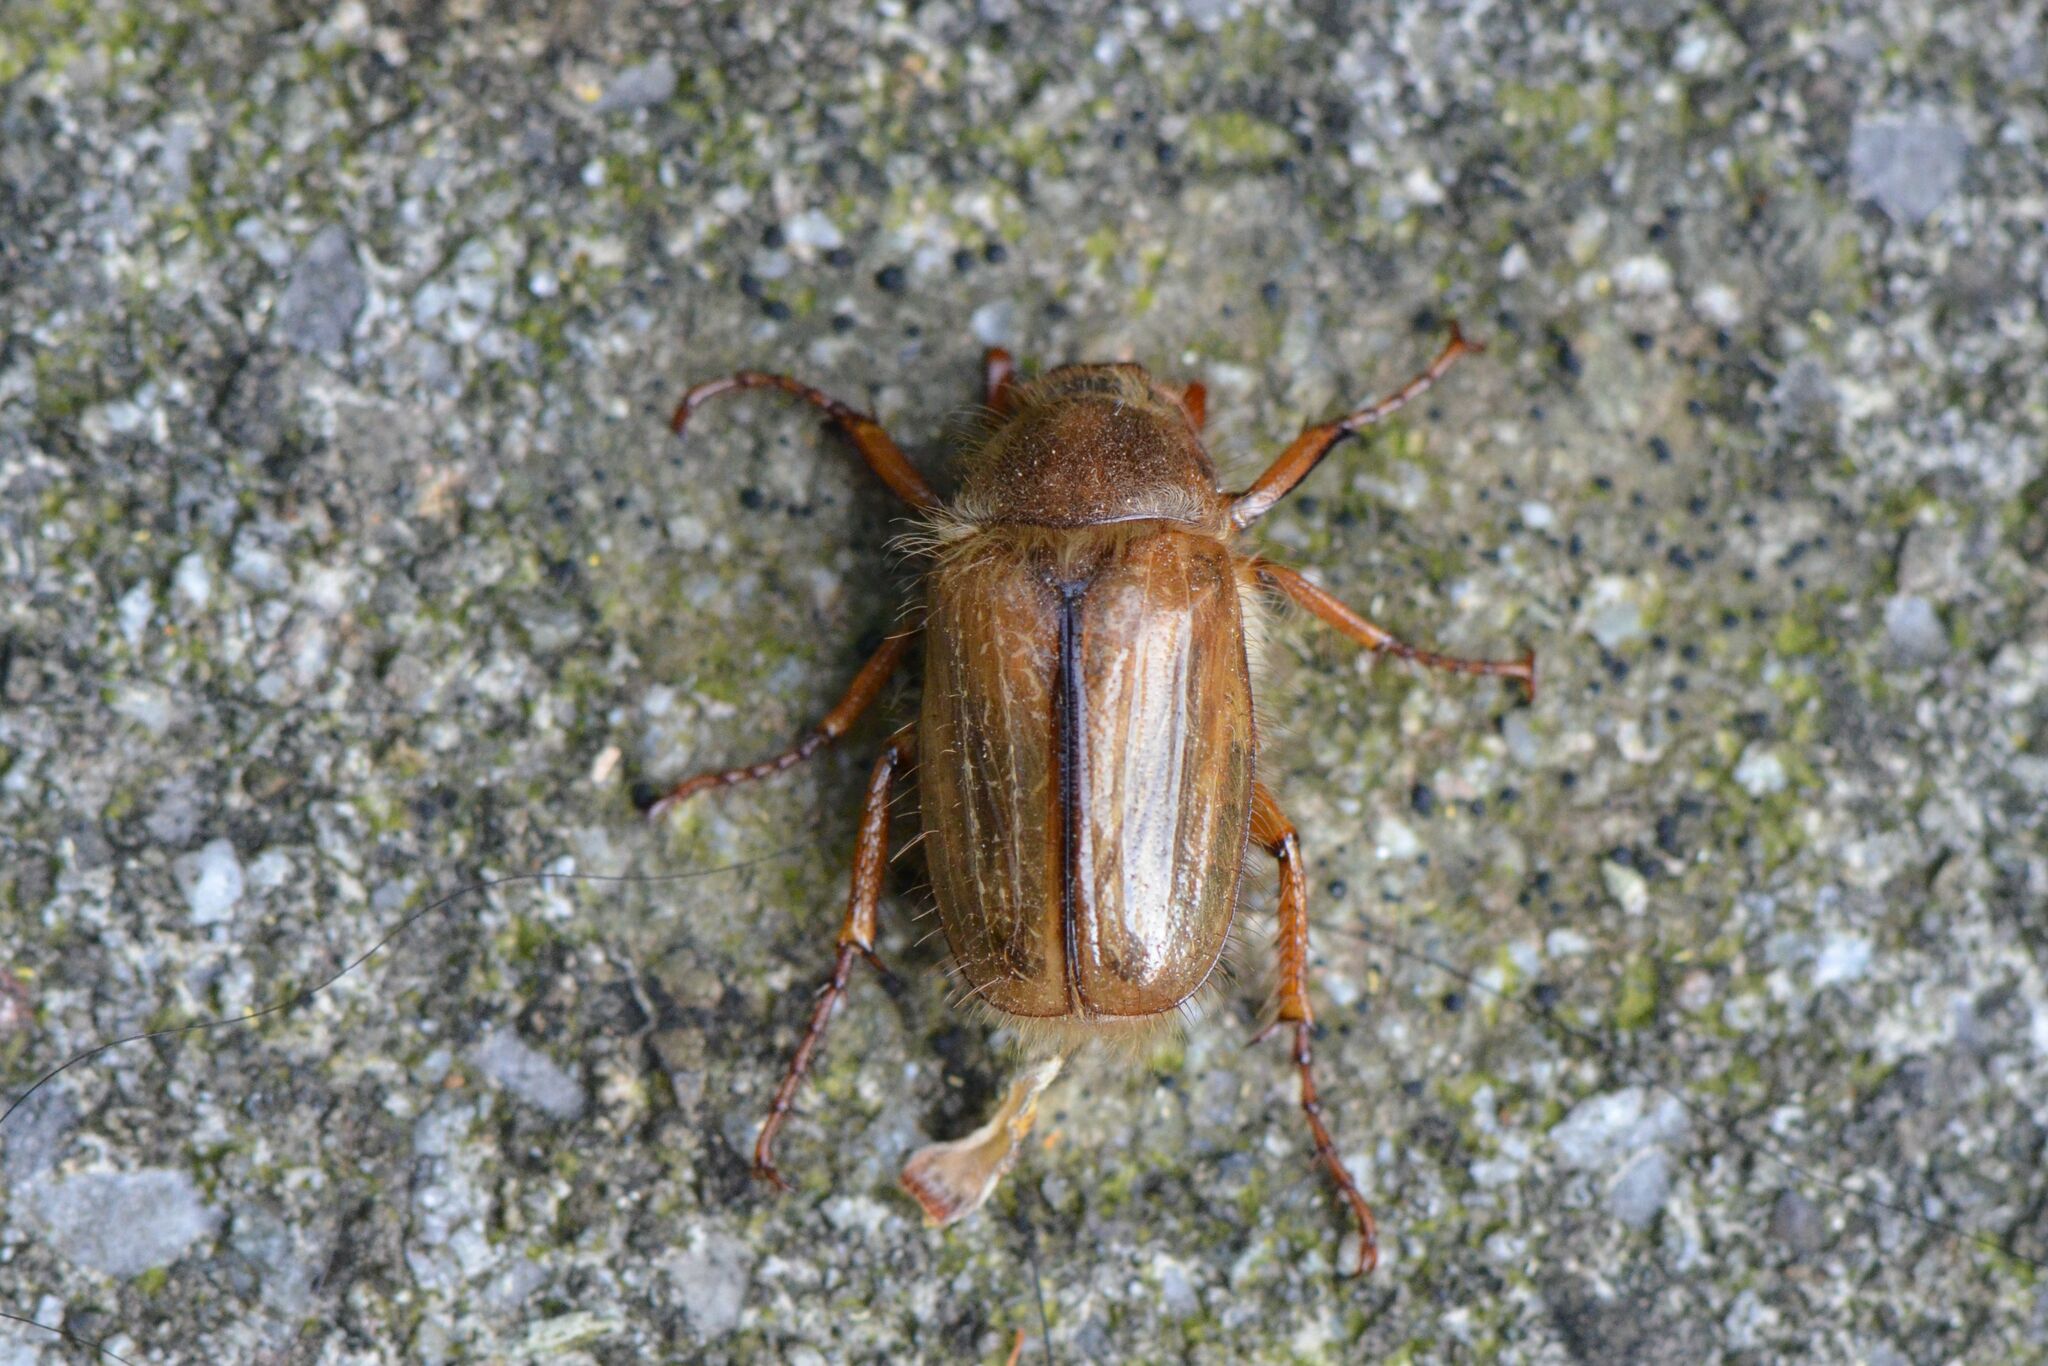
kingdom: Animalia
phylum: Arthropoda
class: Insecta
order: Coleoptera
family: Scarabaeidae
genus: Amphimallon
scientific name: Amphimallon solstitiale
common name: Summer chafer
